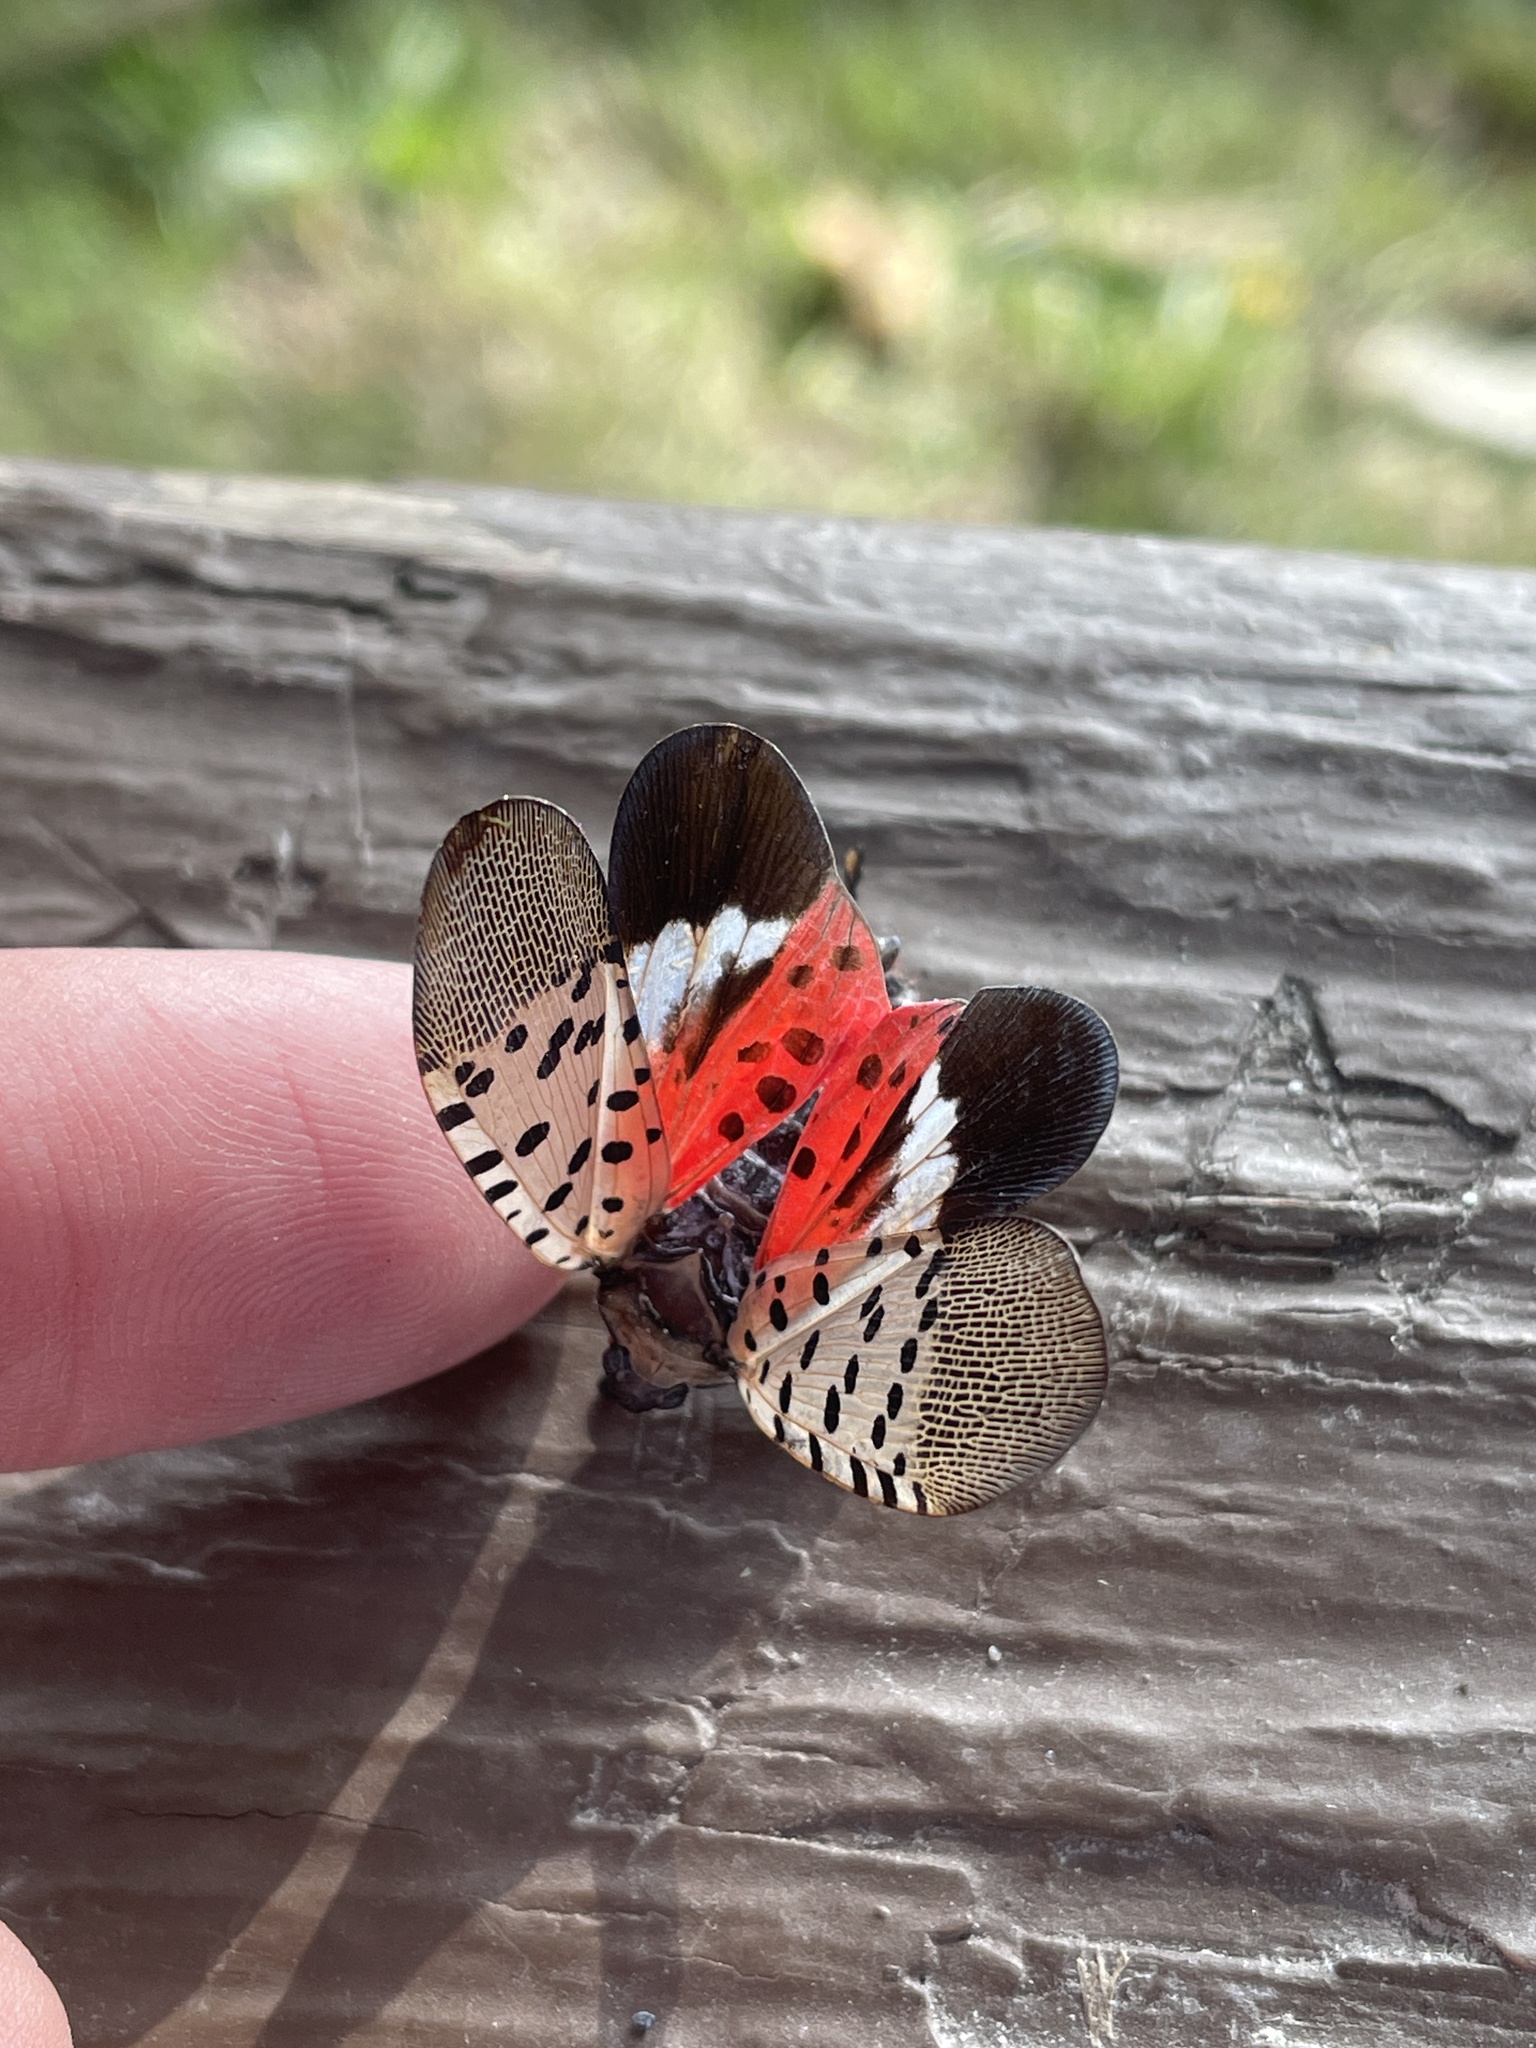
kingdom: Animalia
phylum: Arthropoda
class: Insecta
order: Hemiptera
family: Fulgoridae
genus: Lycorma
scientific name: Lycorma delicatula
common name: Spotted lanternfly
